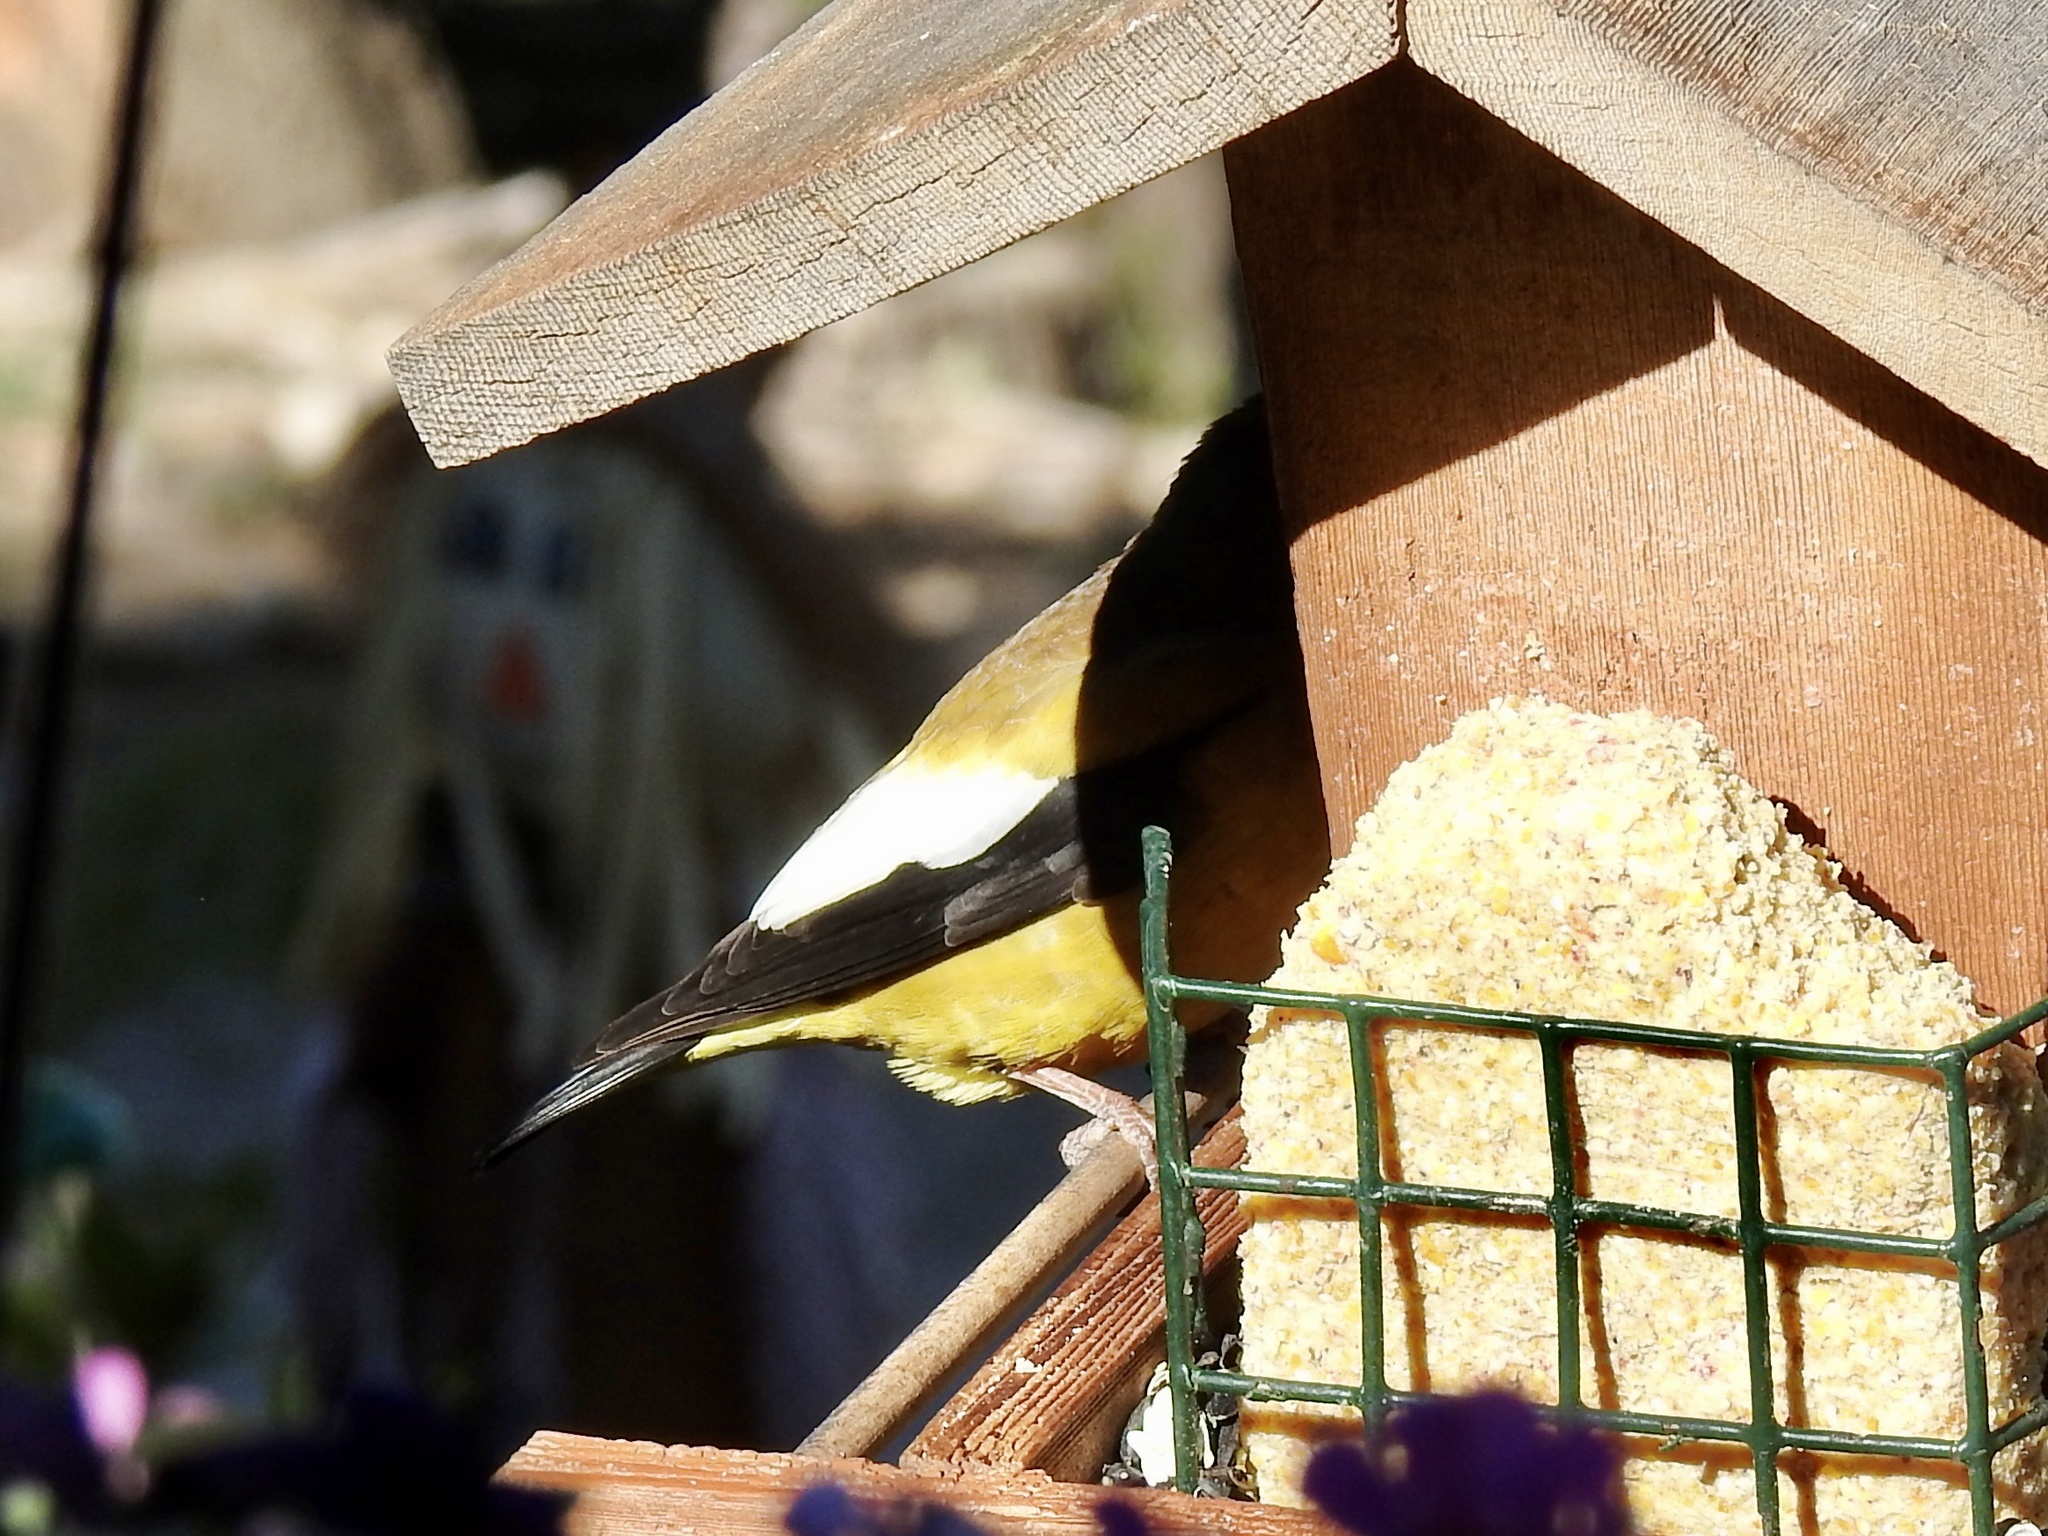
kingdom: Animalia
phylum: Chordata
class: Aves
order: Passeriformes
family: Fringillidae
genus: Hesperiphona
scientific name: Hesperiphona vespertina
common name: Evening grosbeak
